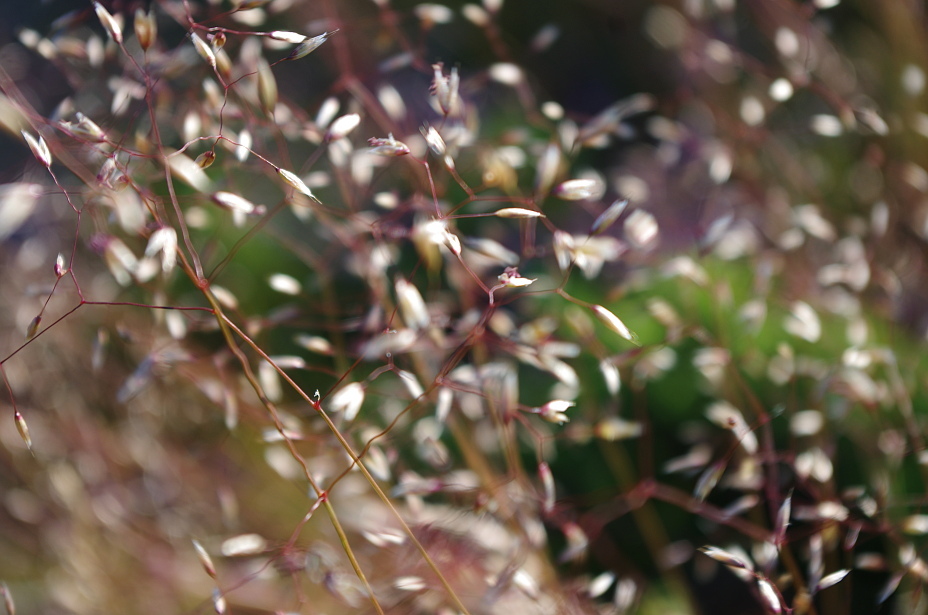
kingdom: Plantae
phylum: Tracheophyta
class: Liliopsida
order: Poales
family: Poaceae
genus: Avenella
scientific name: Avenella flexuosa
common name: Wavy hairgrass
